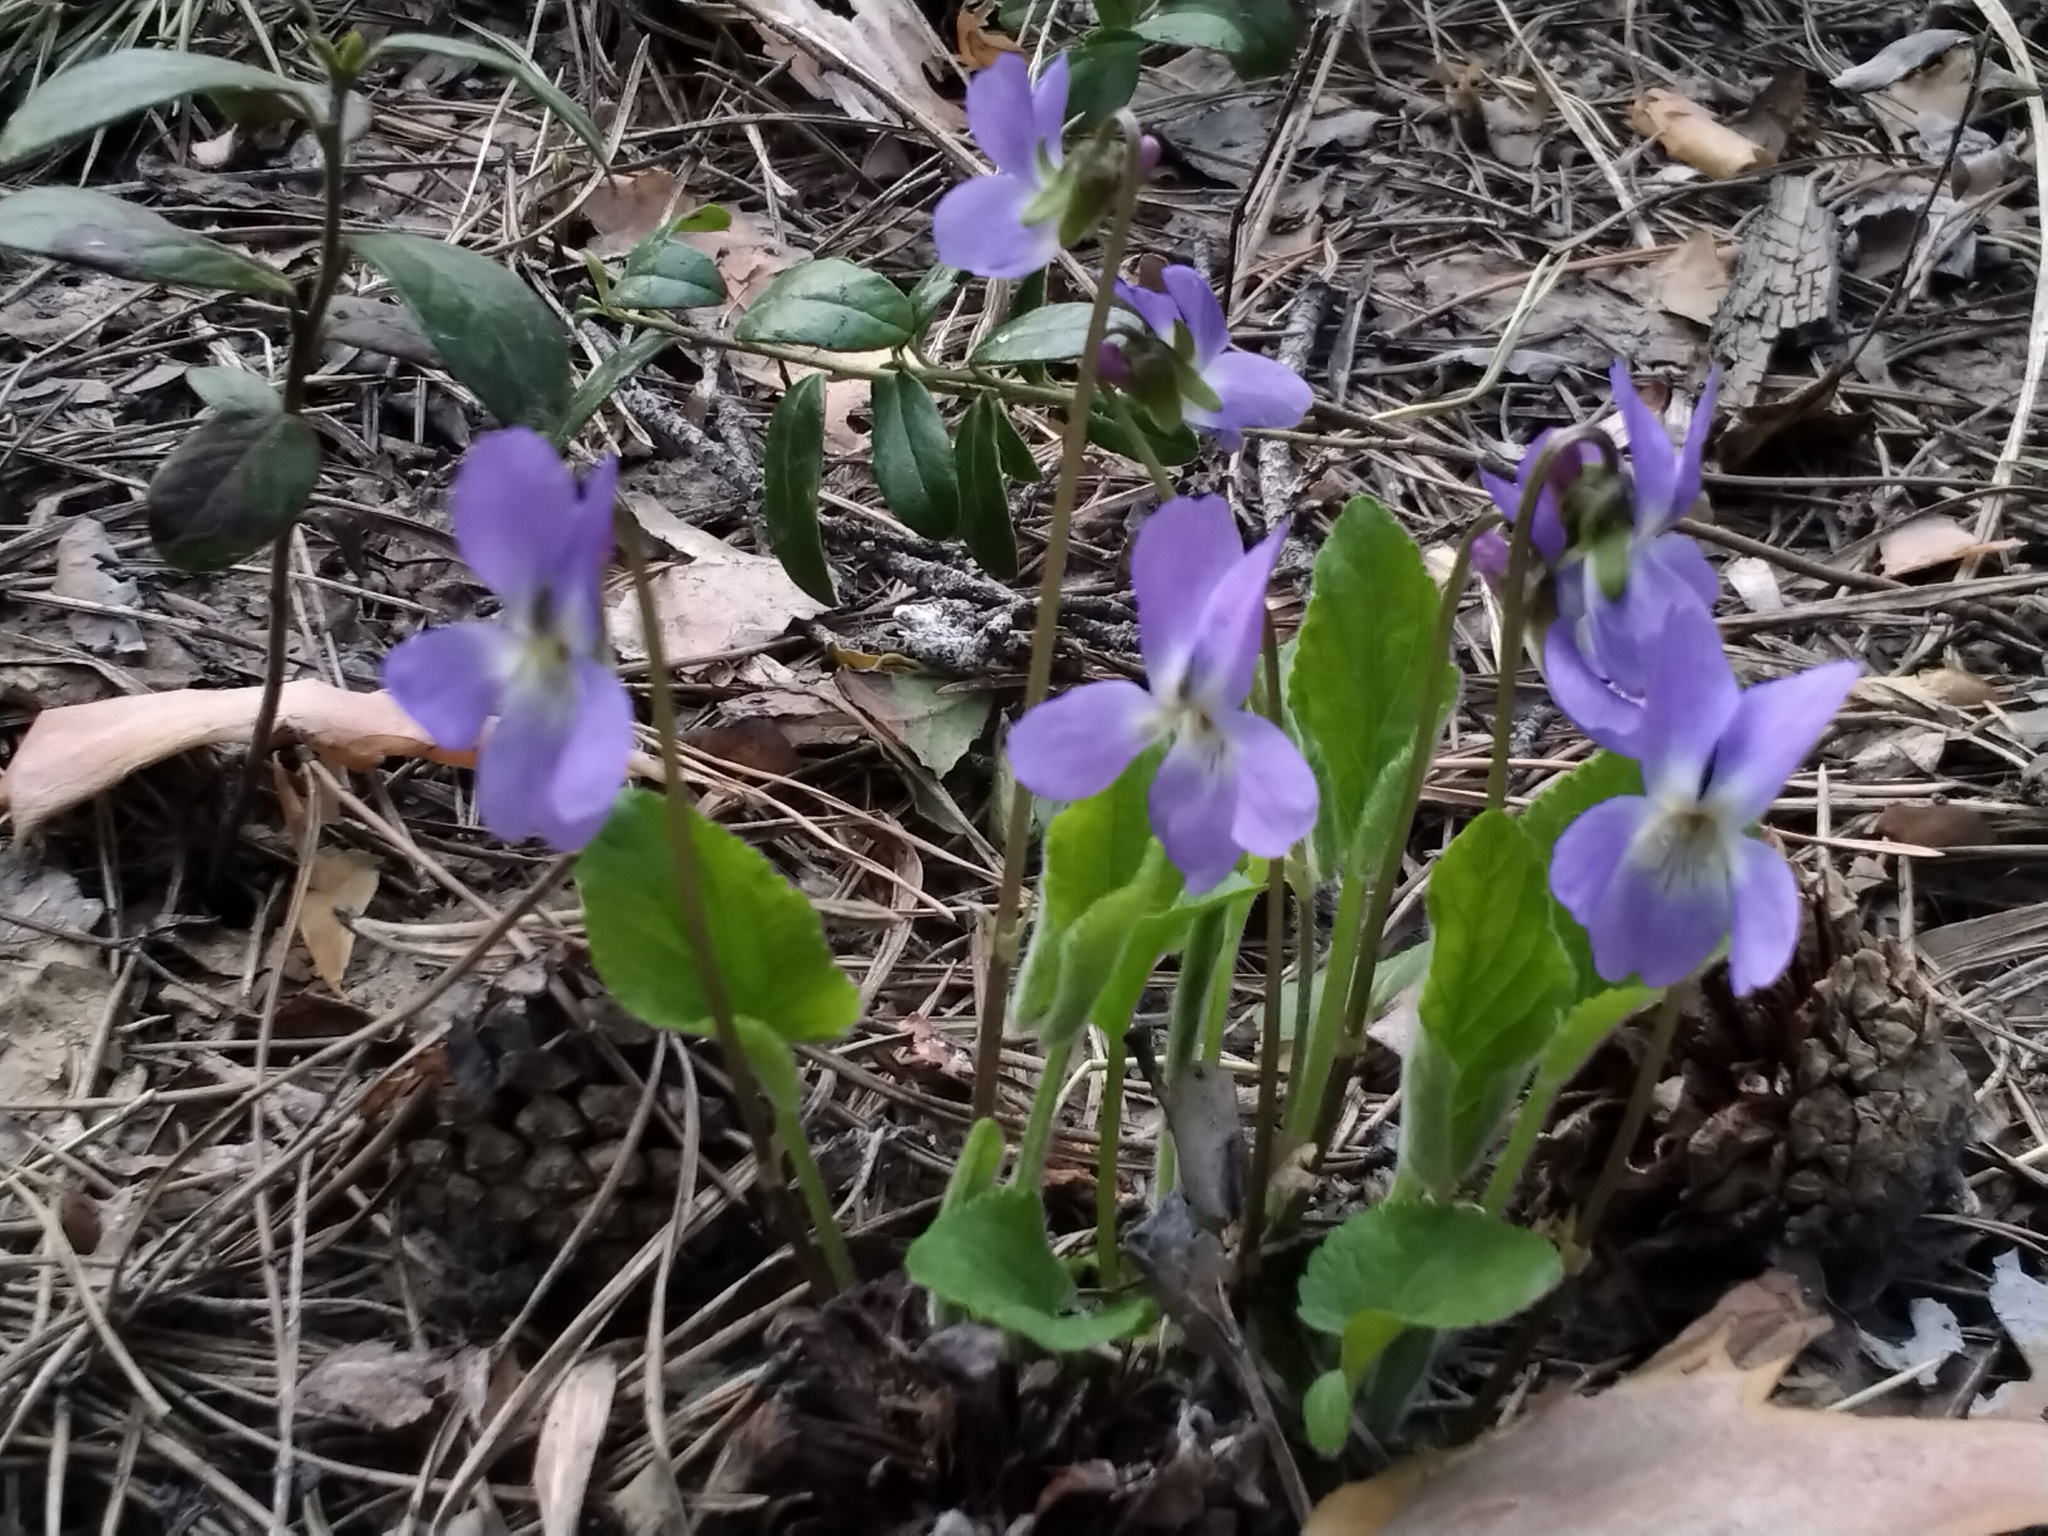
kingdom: Plantae
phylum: Tracheophyta
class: Magnoliopsida
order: Malpighiales
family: Violaceae
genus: Viola
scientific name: Viola hirta
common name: Hairy violet
